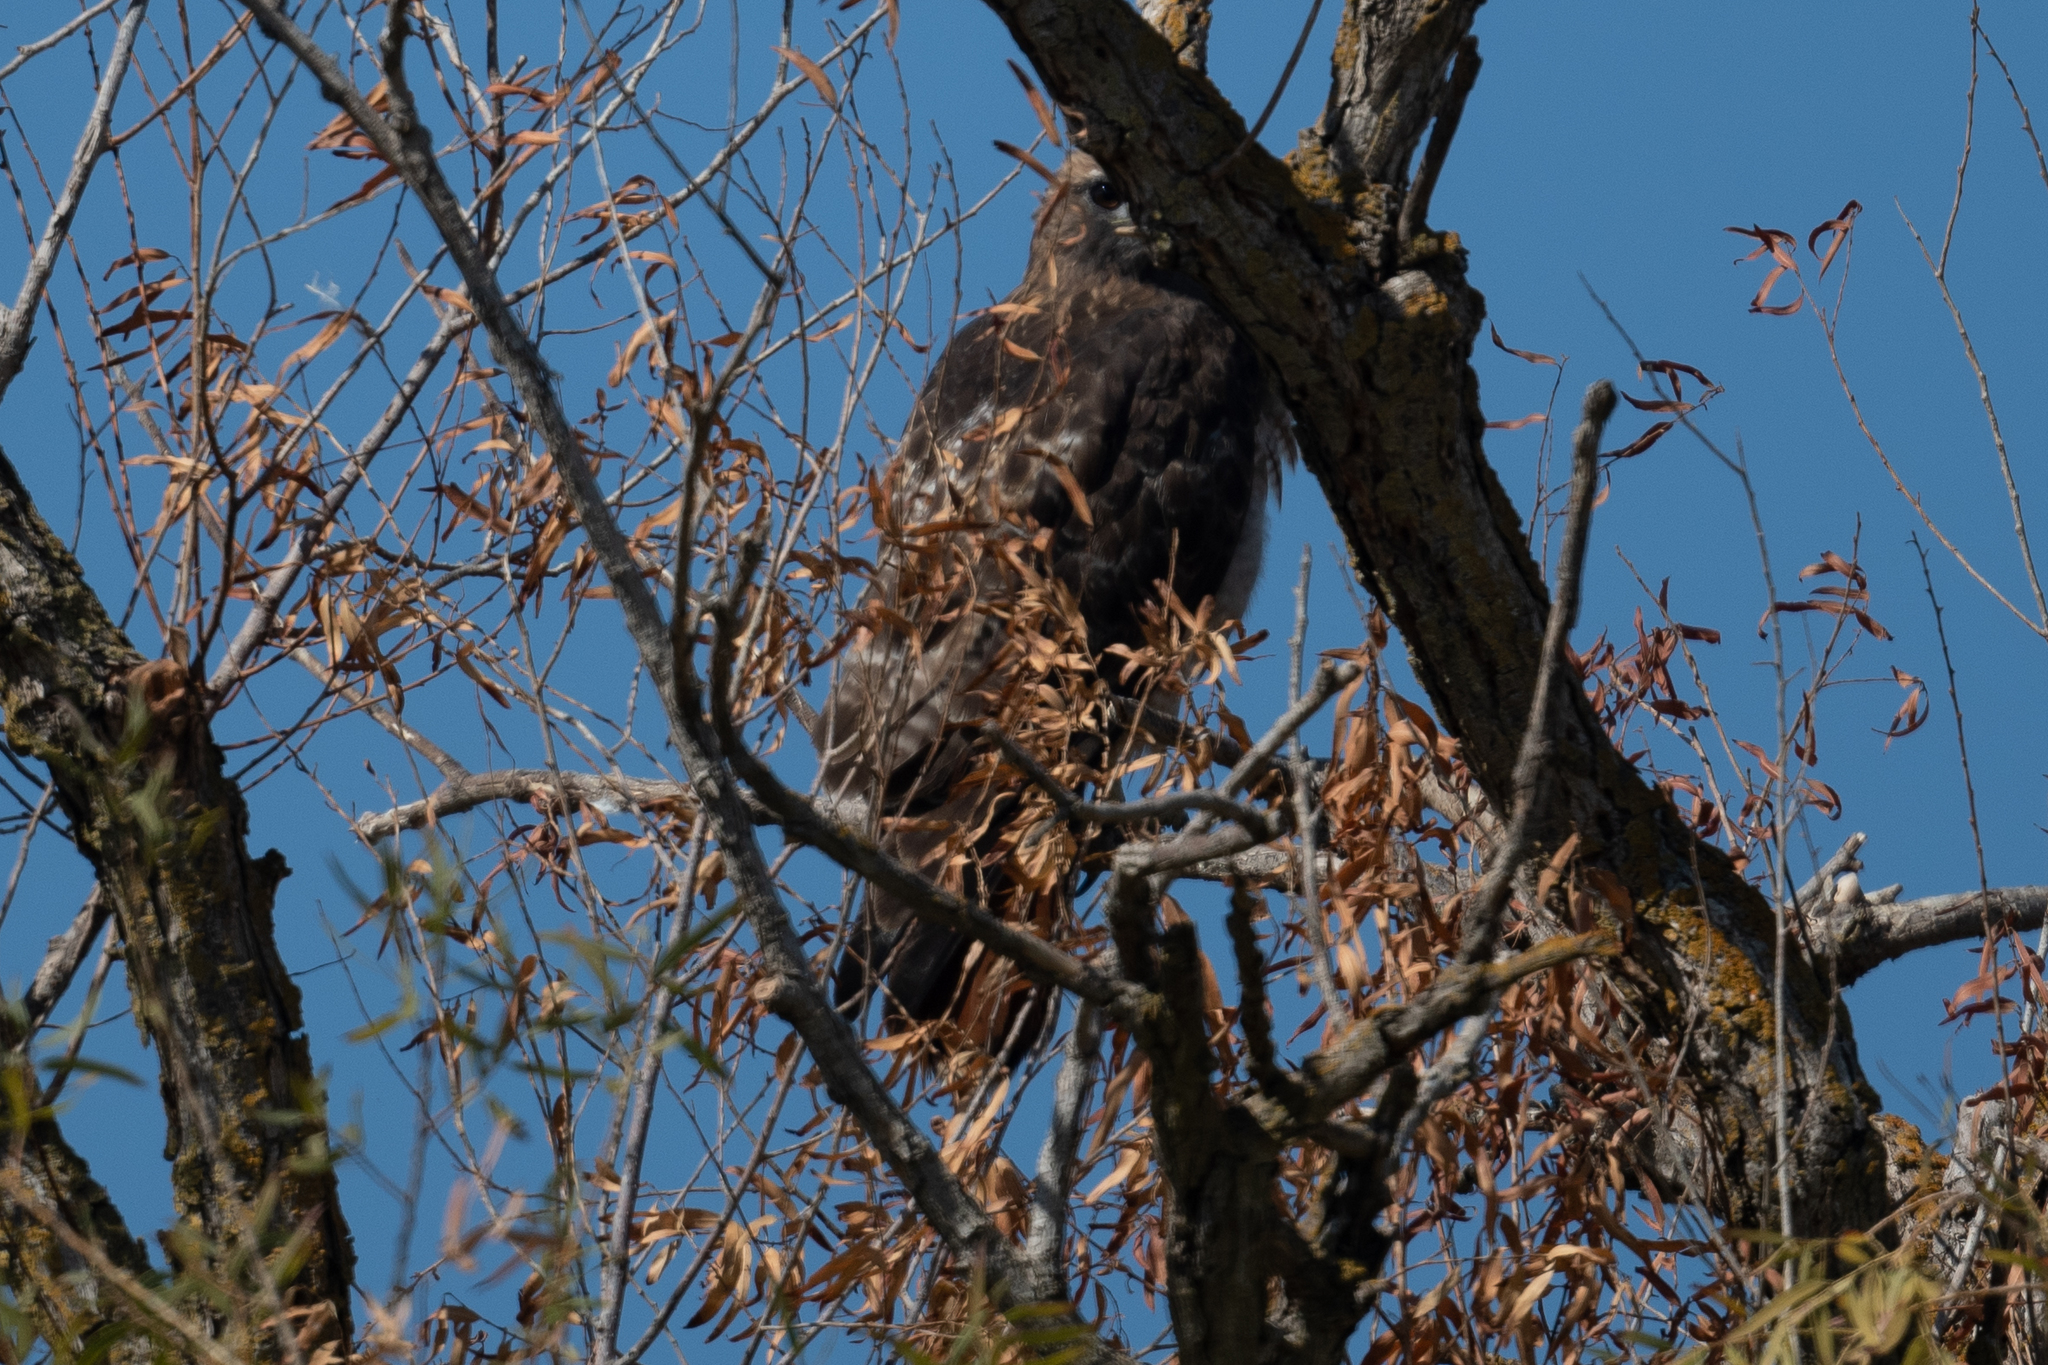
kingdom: Animalia
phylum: Chordata
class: Aves
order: Accipitriformes
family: Accipitridae
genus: Buteo
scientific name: Buteo jamaicensis
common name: Red-tailed hawk
